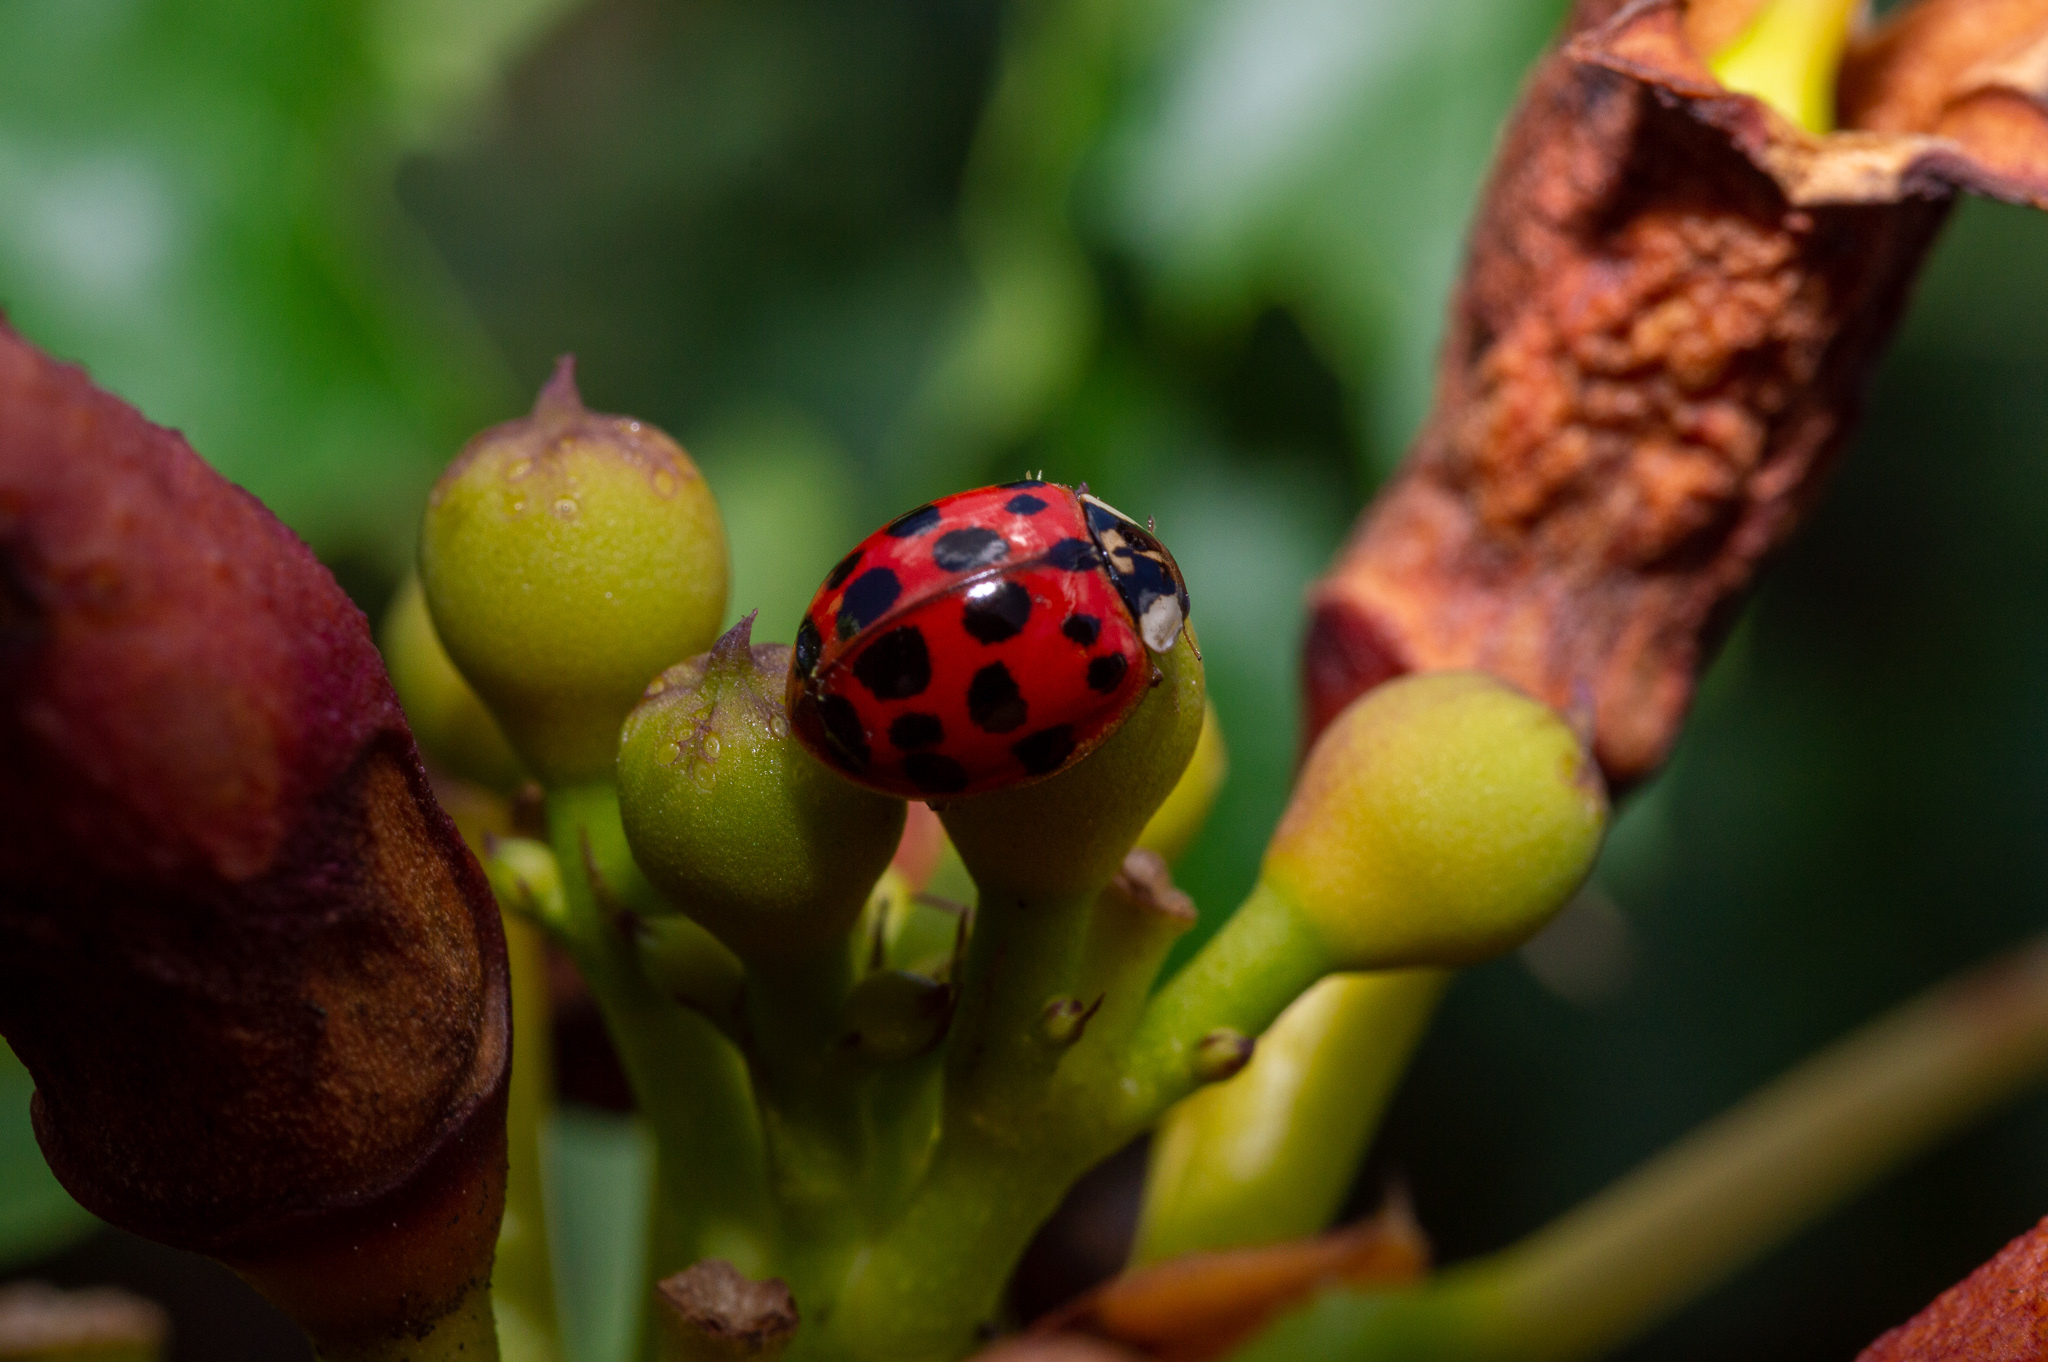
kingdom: Animalia
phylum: Arthropoda
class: Insecta
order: Coleoptera
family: Coccinellidae
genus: Harmonia
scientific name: Harmonia axyridis
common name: Harlequin ladybird
